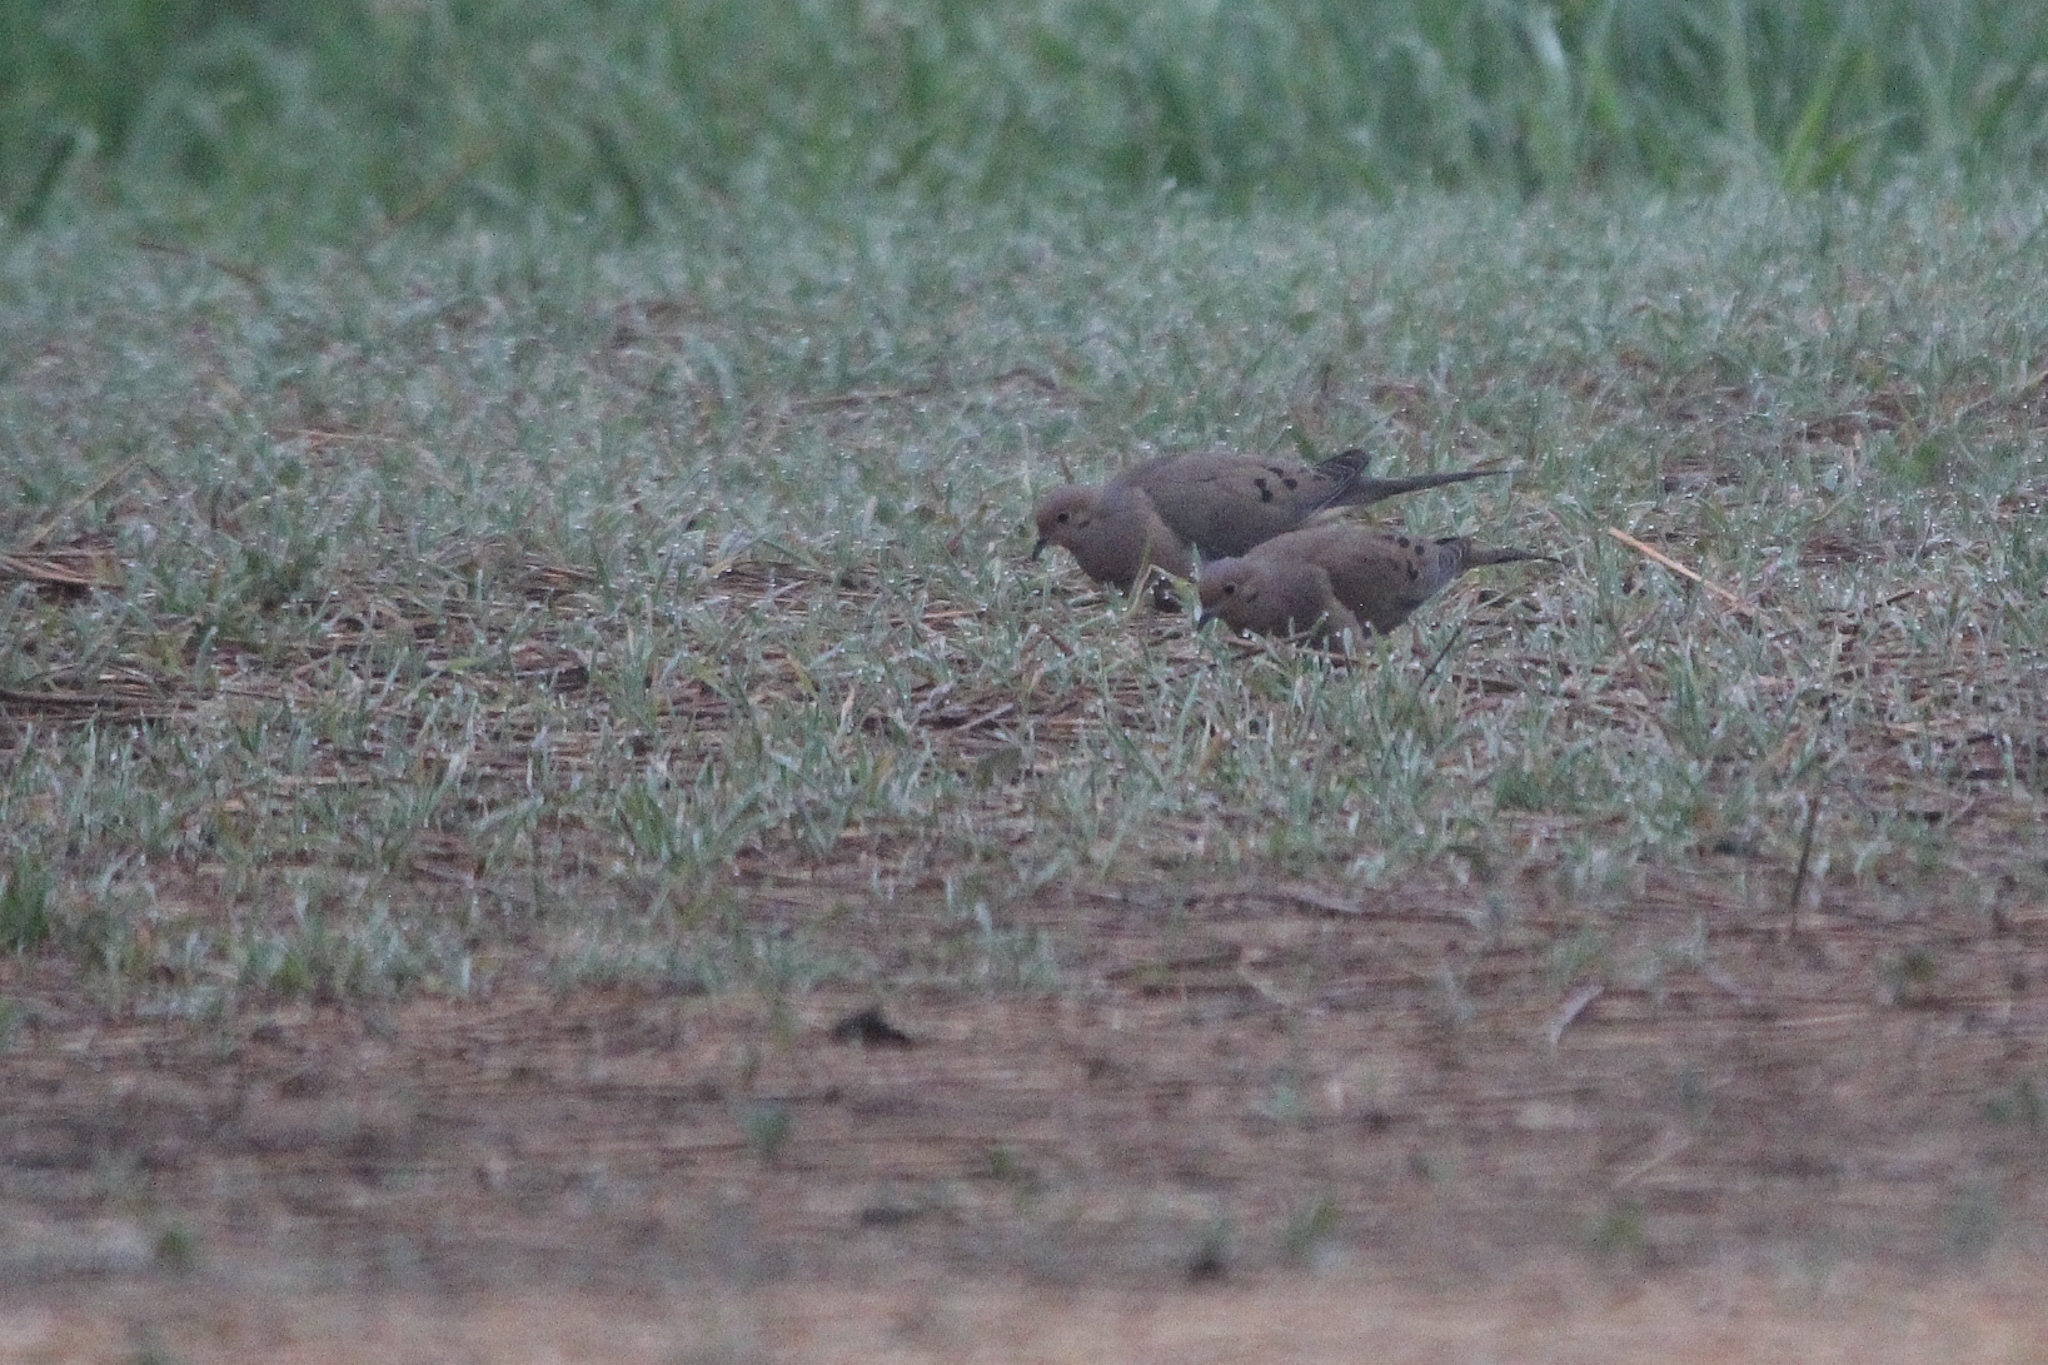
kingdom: Animalia
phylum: Chordata
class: Aves
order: Columbiformes
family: Columbidae
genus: Zenaida
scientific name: Zenaida macroura
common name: Mourning dove
